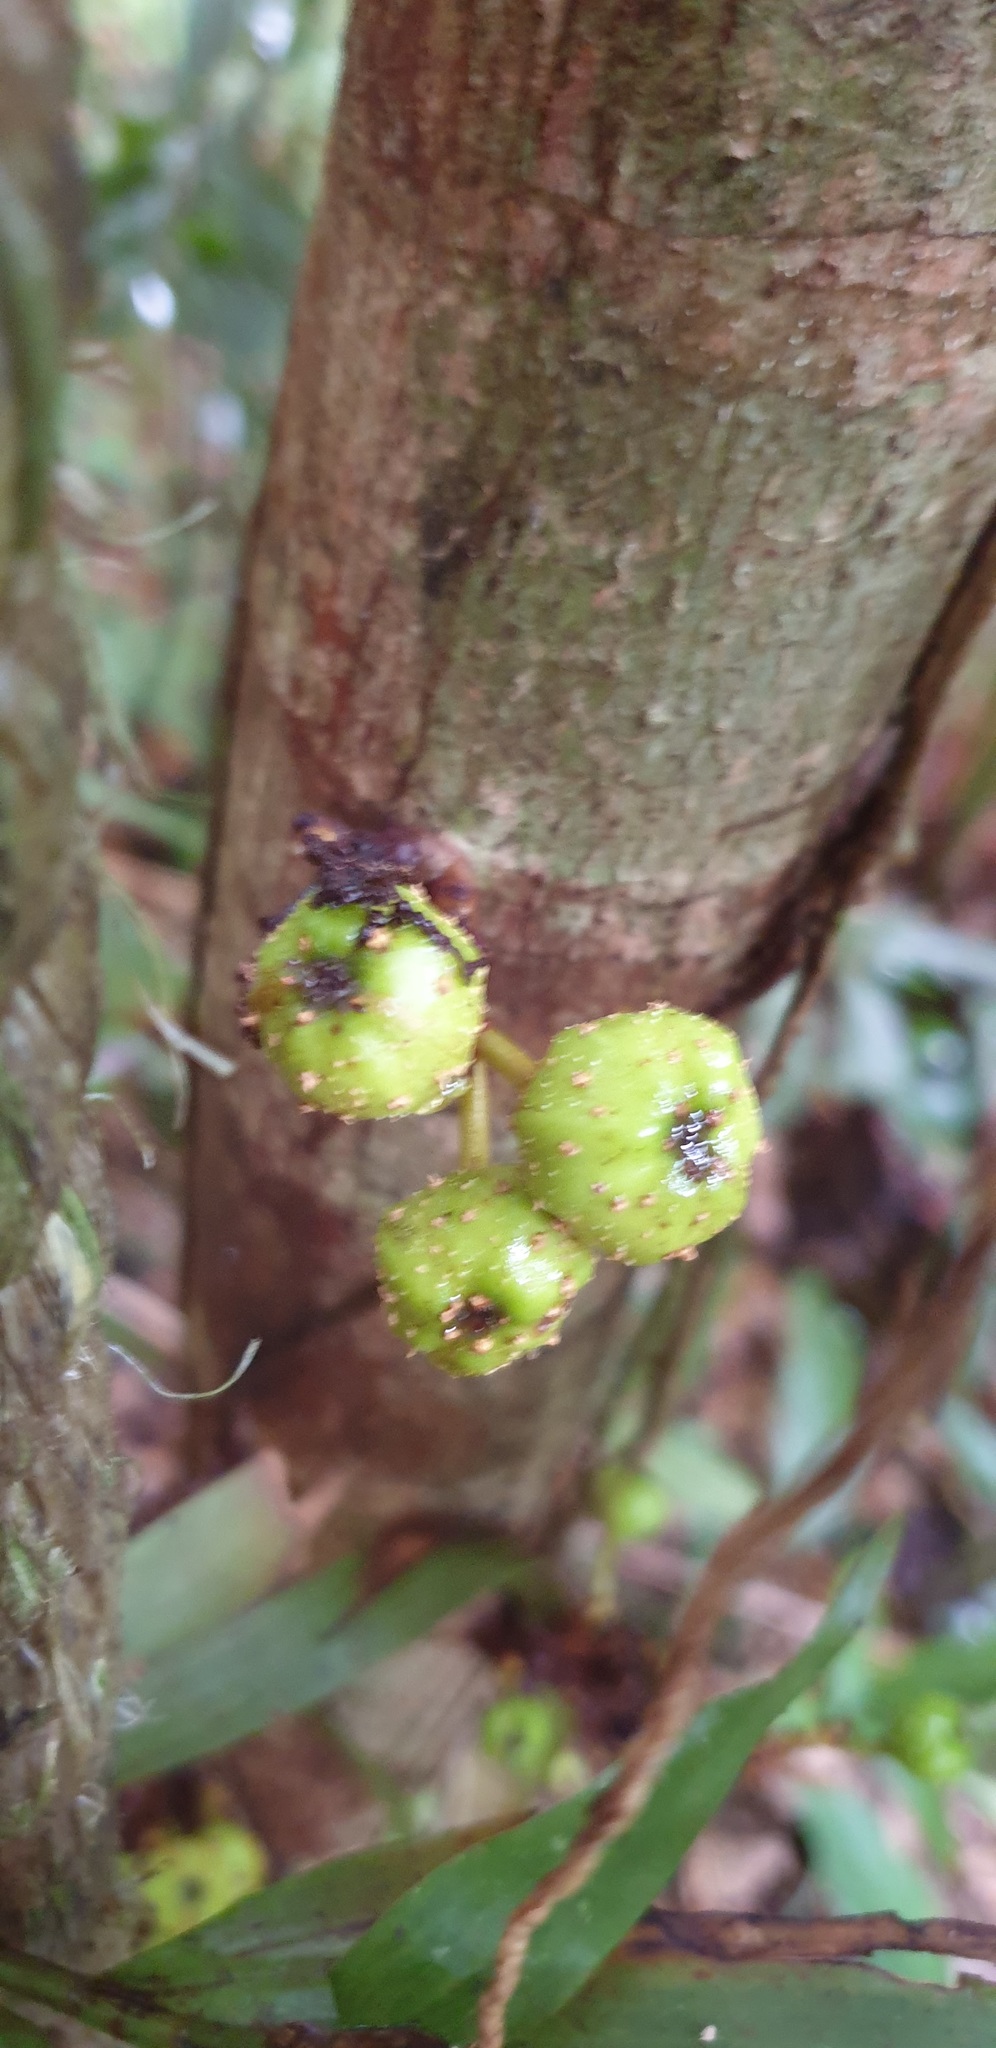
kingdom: Plantae
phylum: Tracheophyta
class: Magnoliopsida
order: Rosales
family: Moraceae
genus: Ficus
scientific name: Ficus septica
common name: Septic fig
